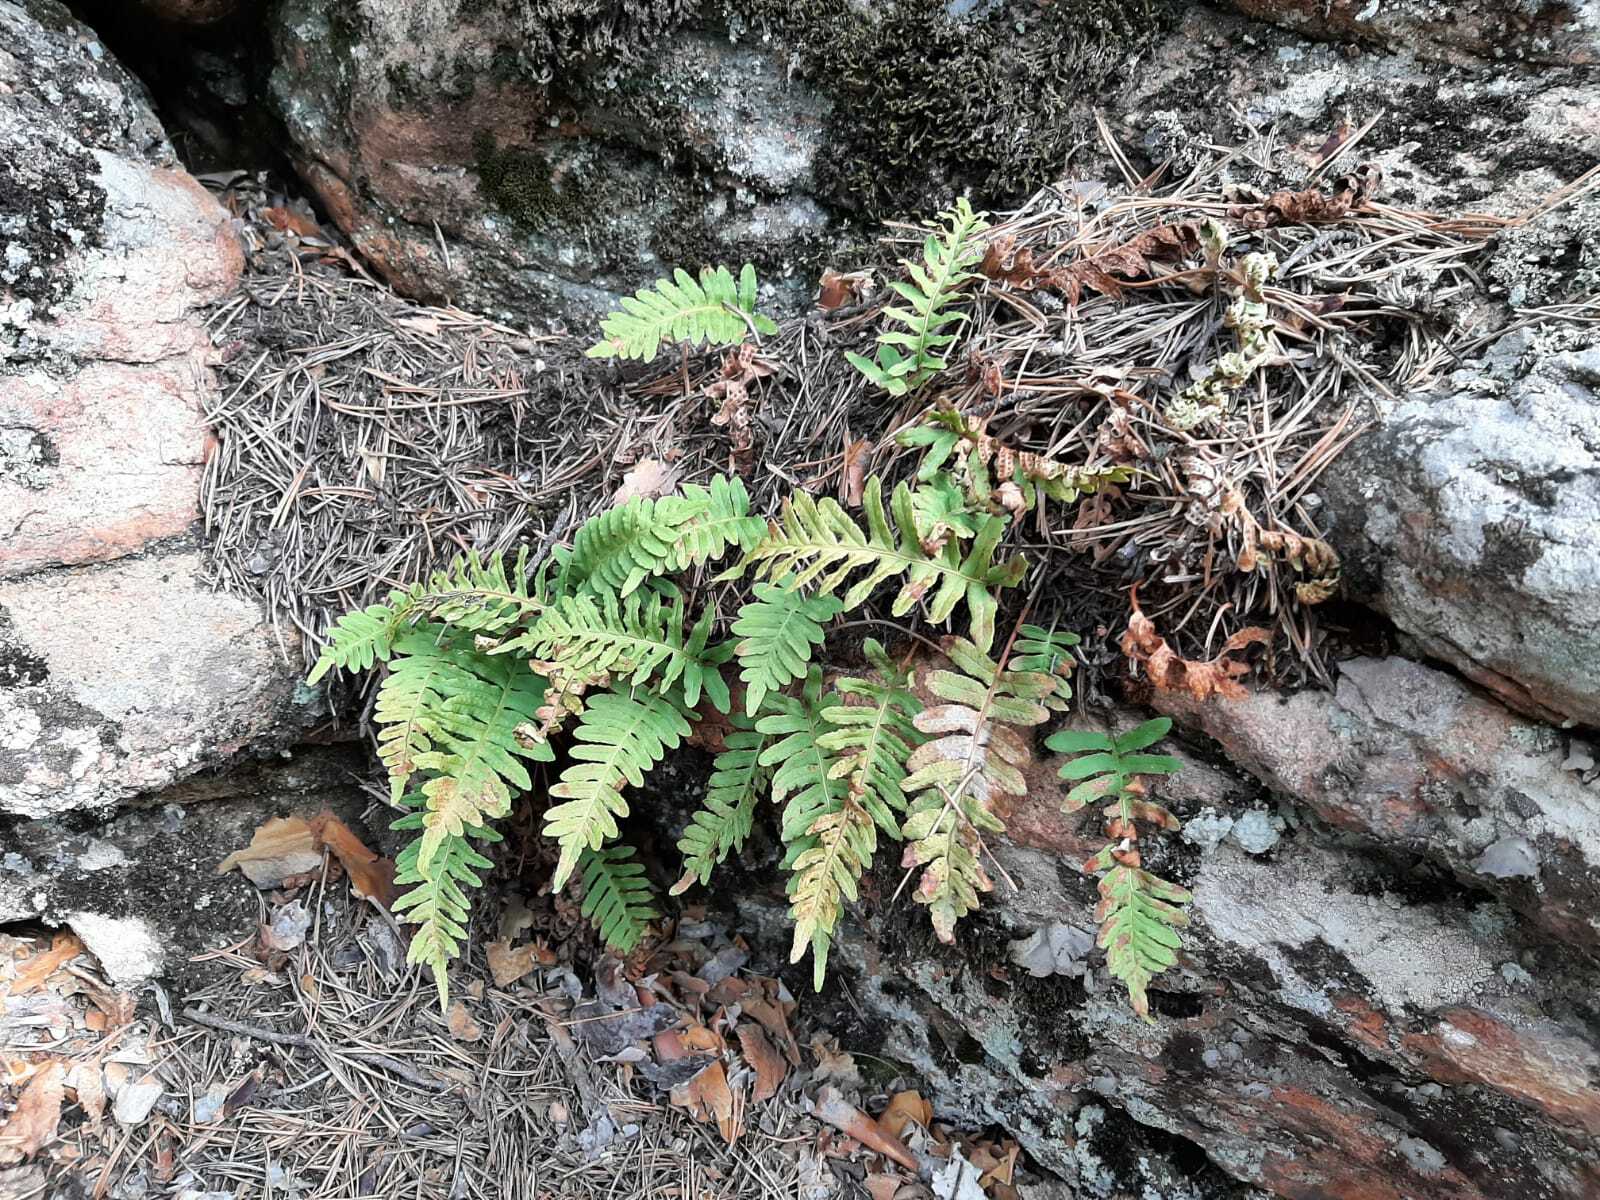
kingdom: Plantae
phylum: Tracheophyta
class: Polypodiopsida
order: Polypodiales
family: Polypodiaceae
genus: Polypodium
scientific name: Polypodium vulgare
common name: Common polypody
